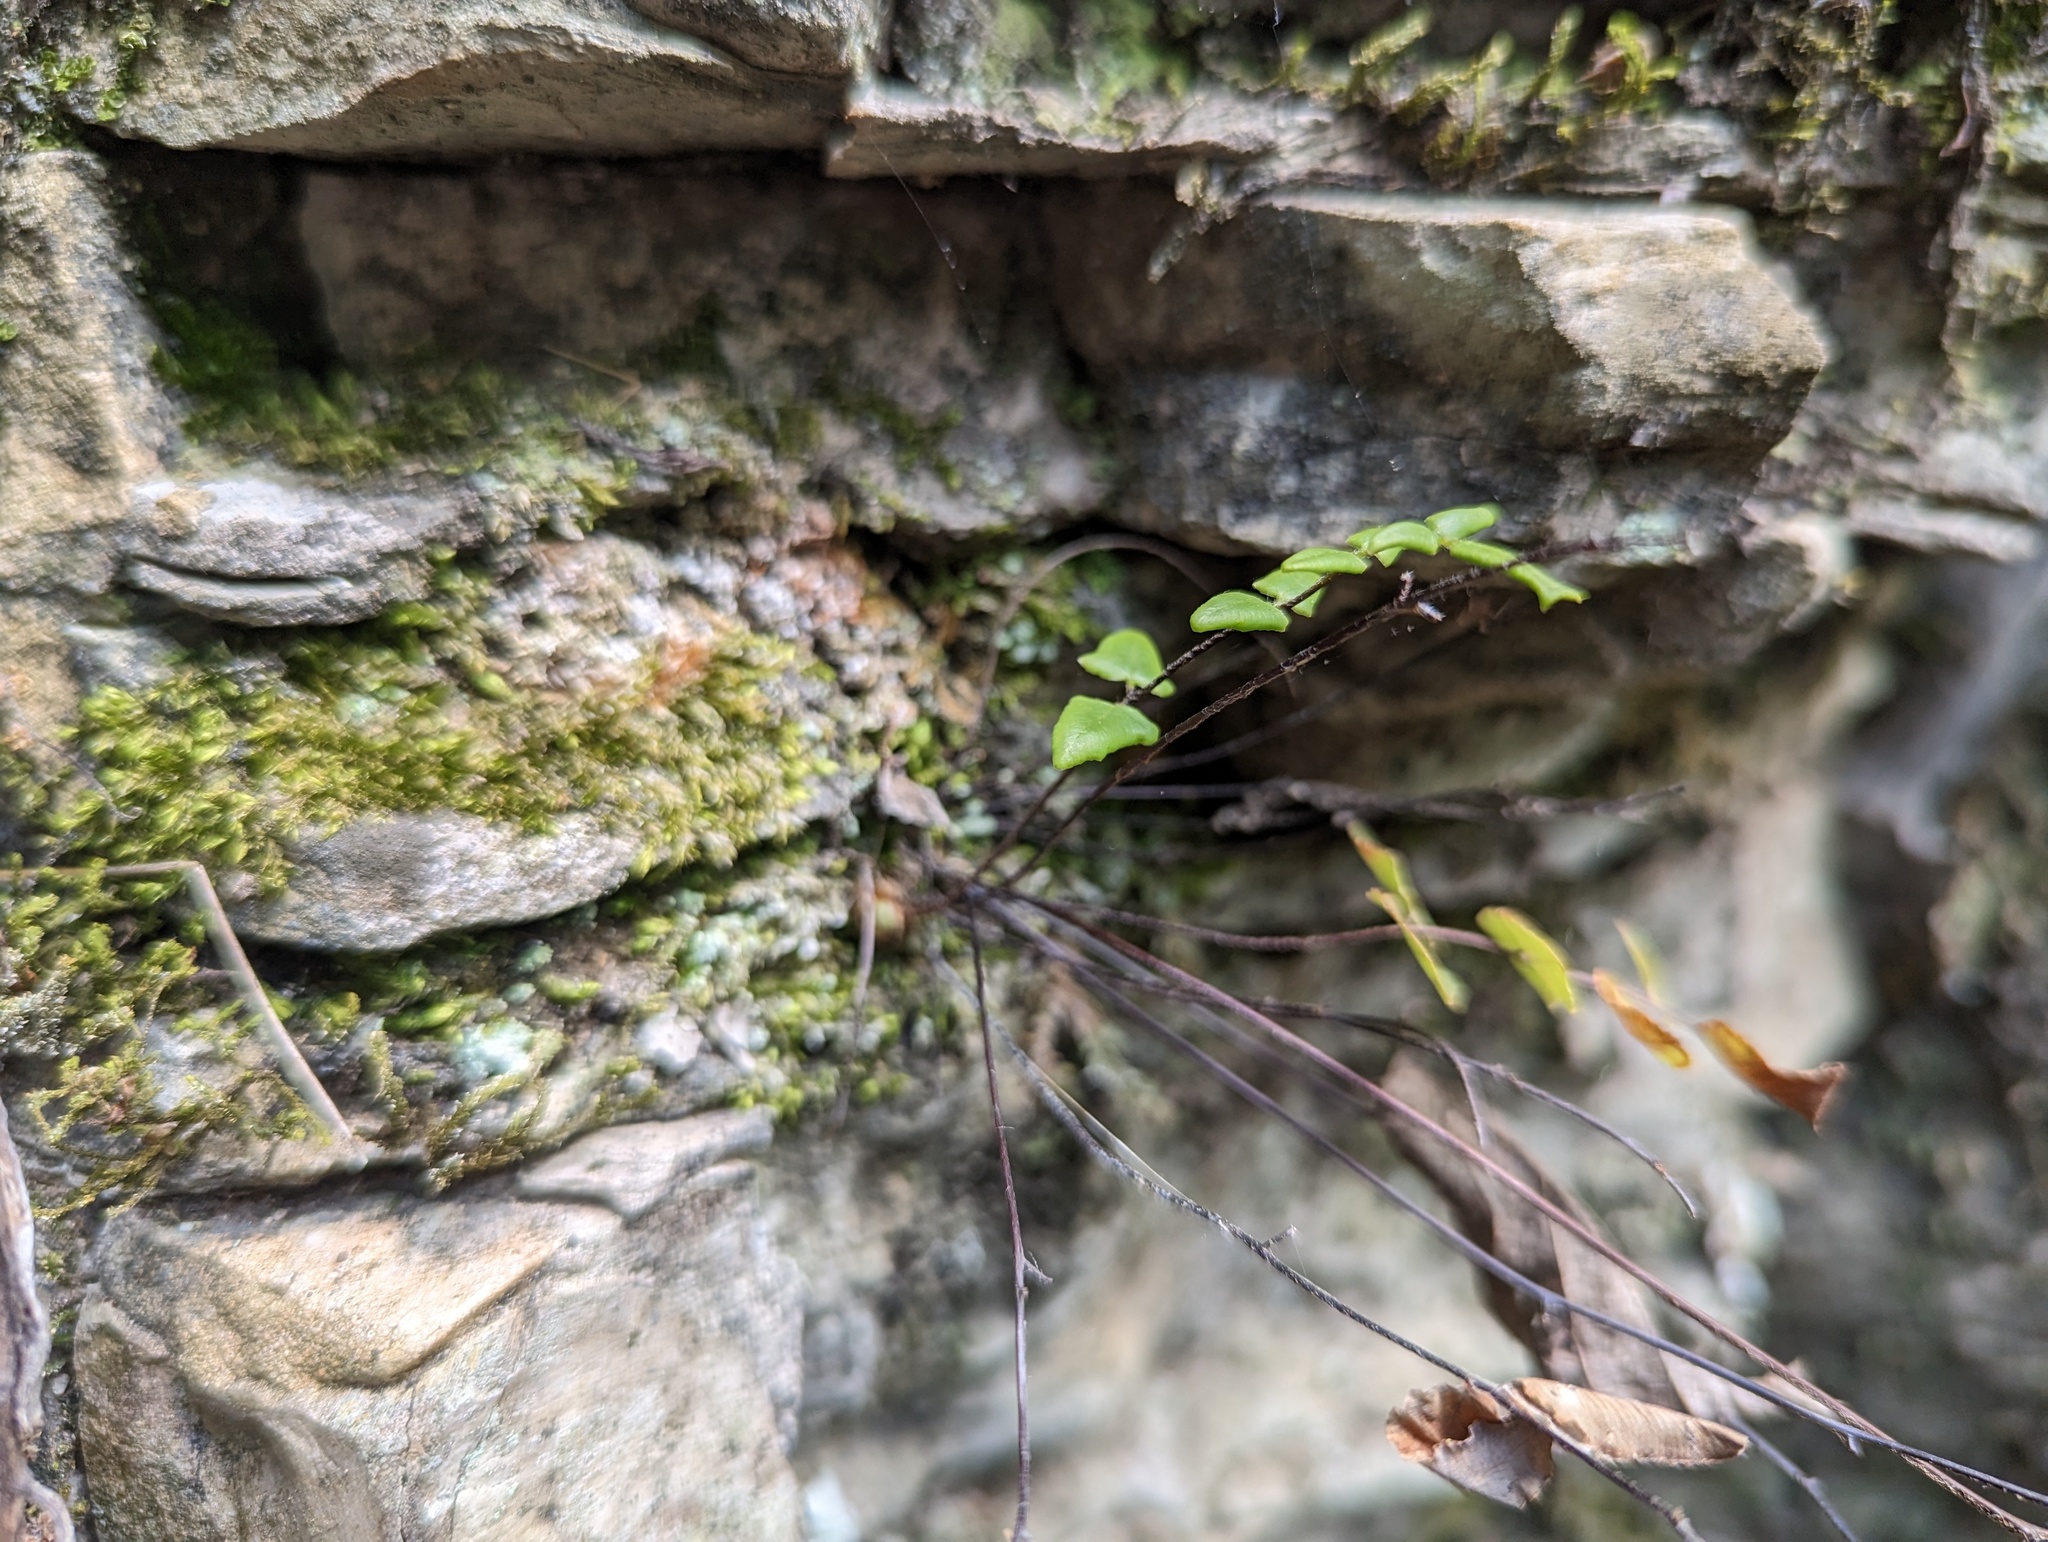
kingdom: Plantae
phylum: Tracheophyta
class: Polypodiopsida
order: Polypodiales
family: Pteridaceae
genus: Pellaea
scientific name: Pellaea atropurpurea
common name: Hairy cliffbrake
